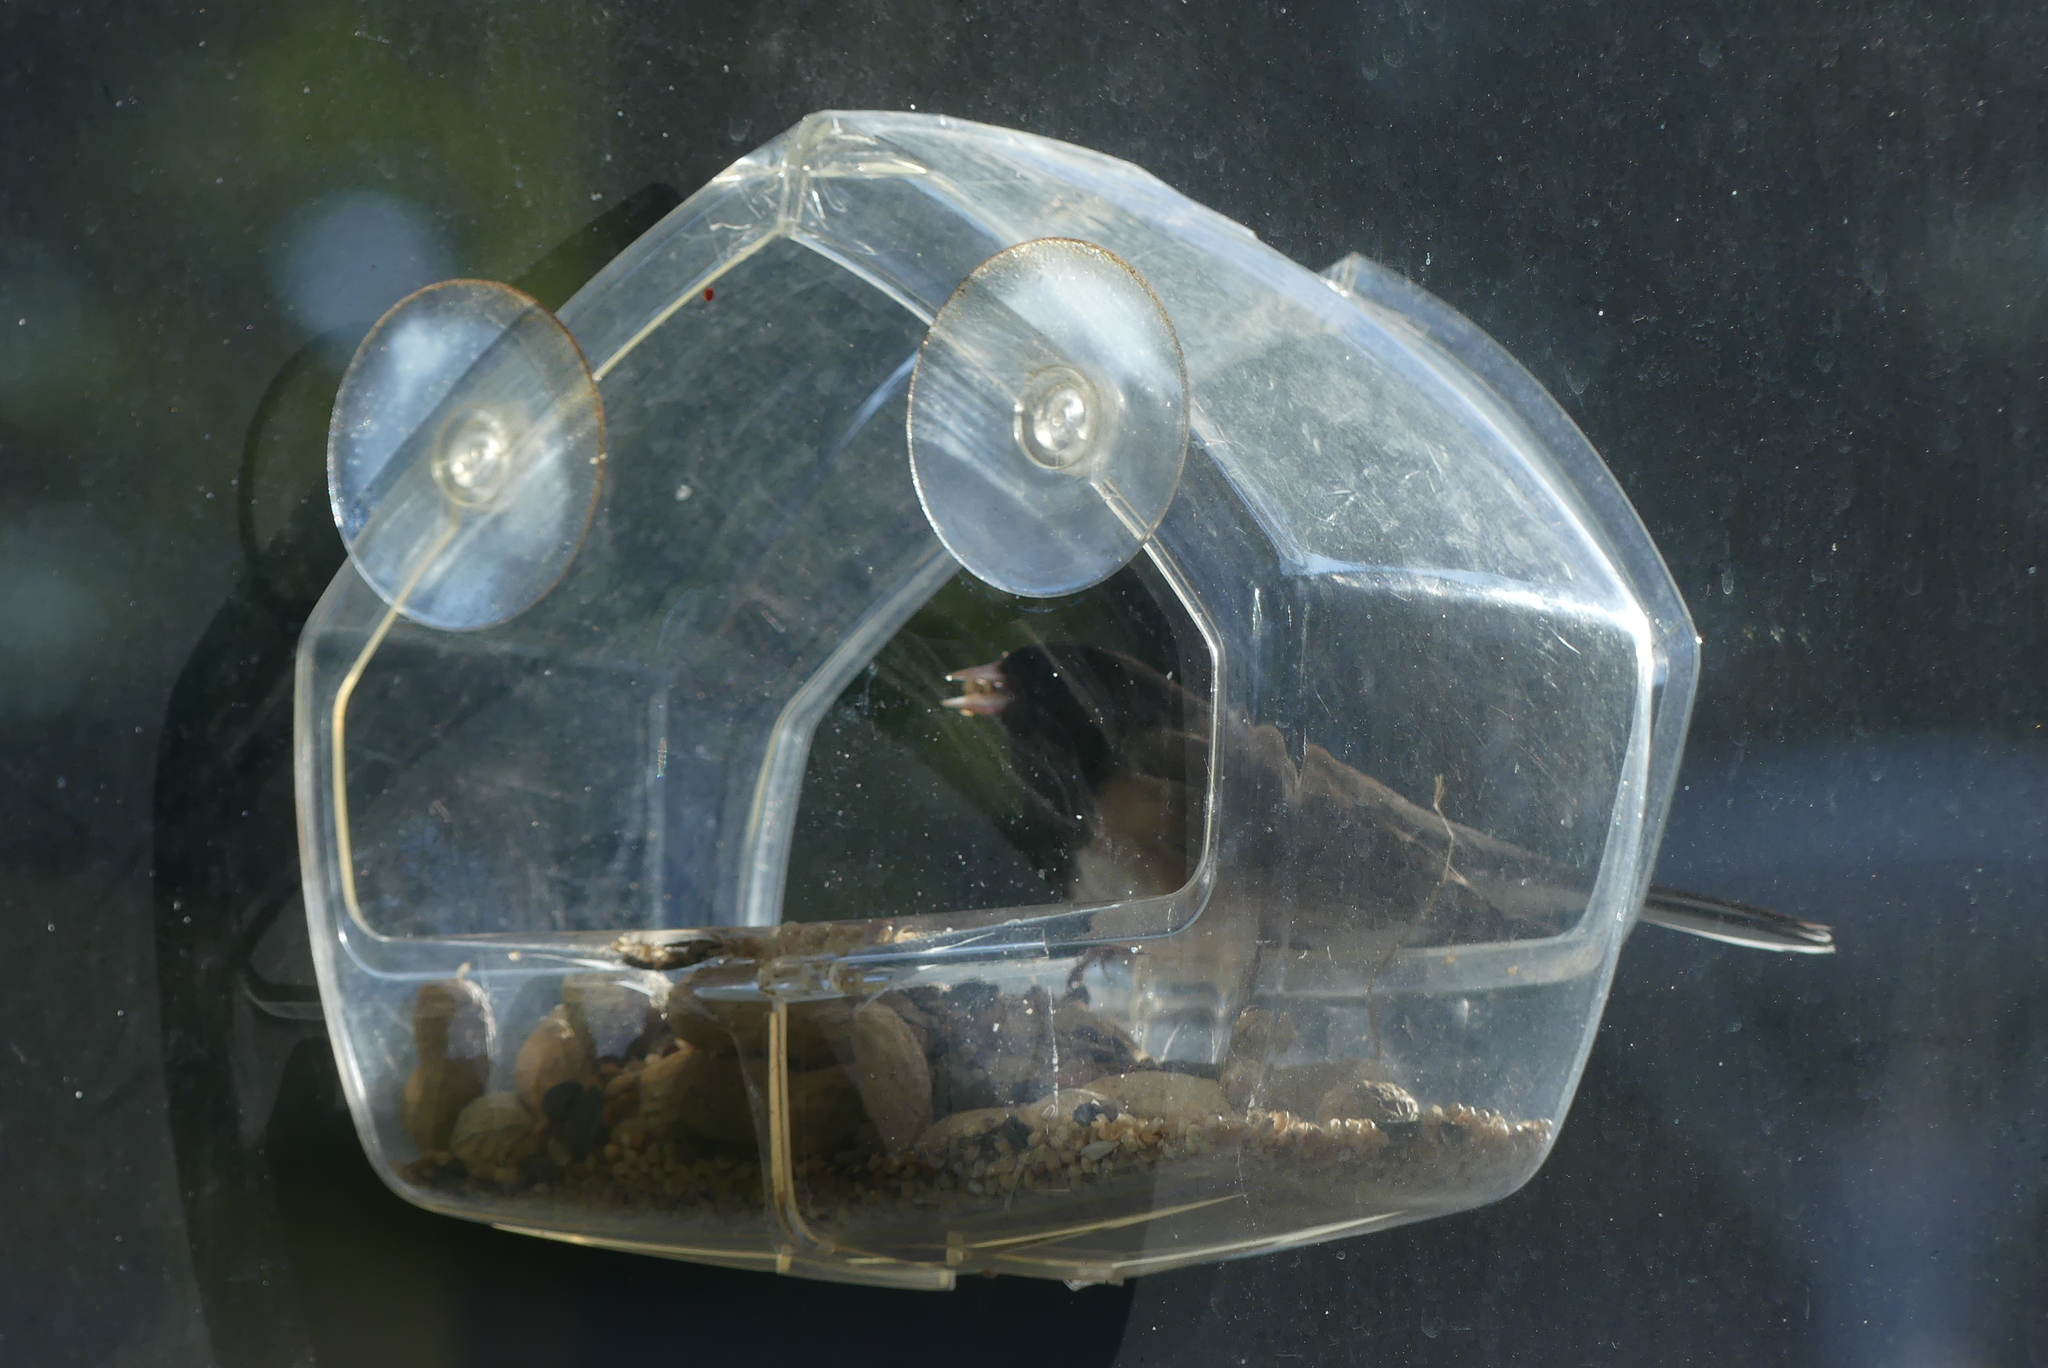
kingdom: Animalia
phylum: Chordata
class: Aves
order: Passeriformes
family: Passerellidae
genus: Junco
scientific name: Junco hyemalis
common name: Dark-eyed junco
